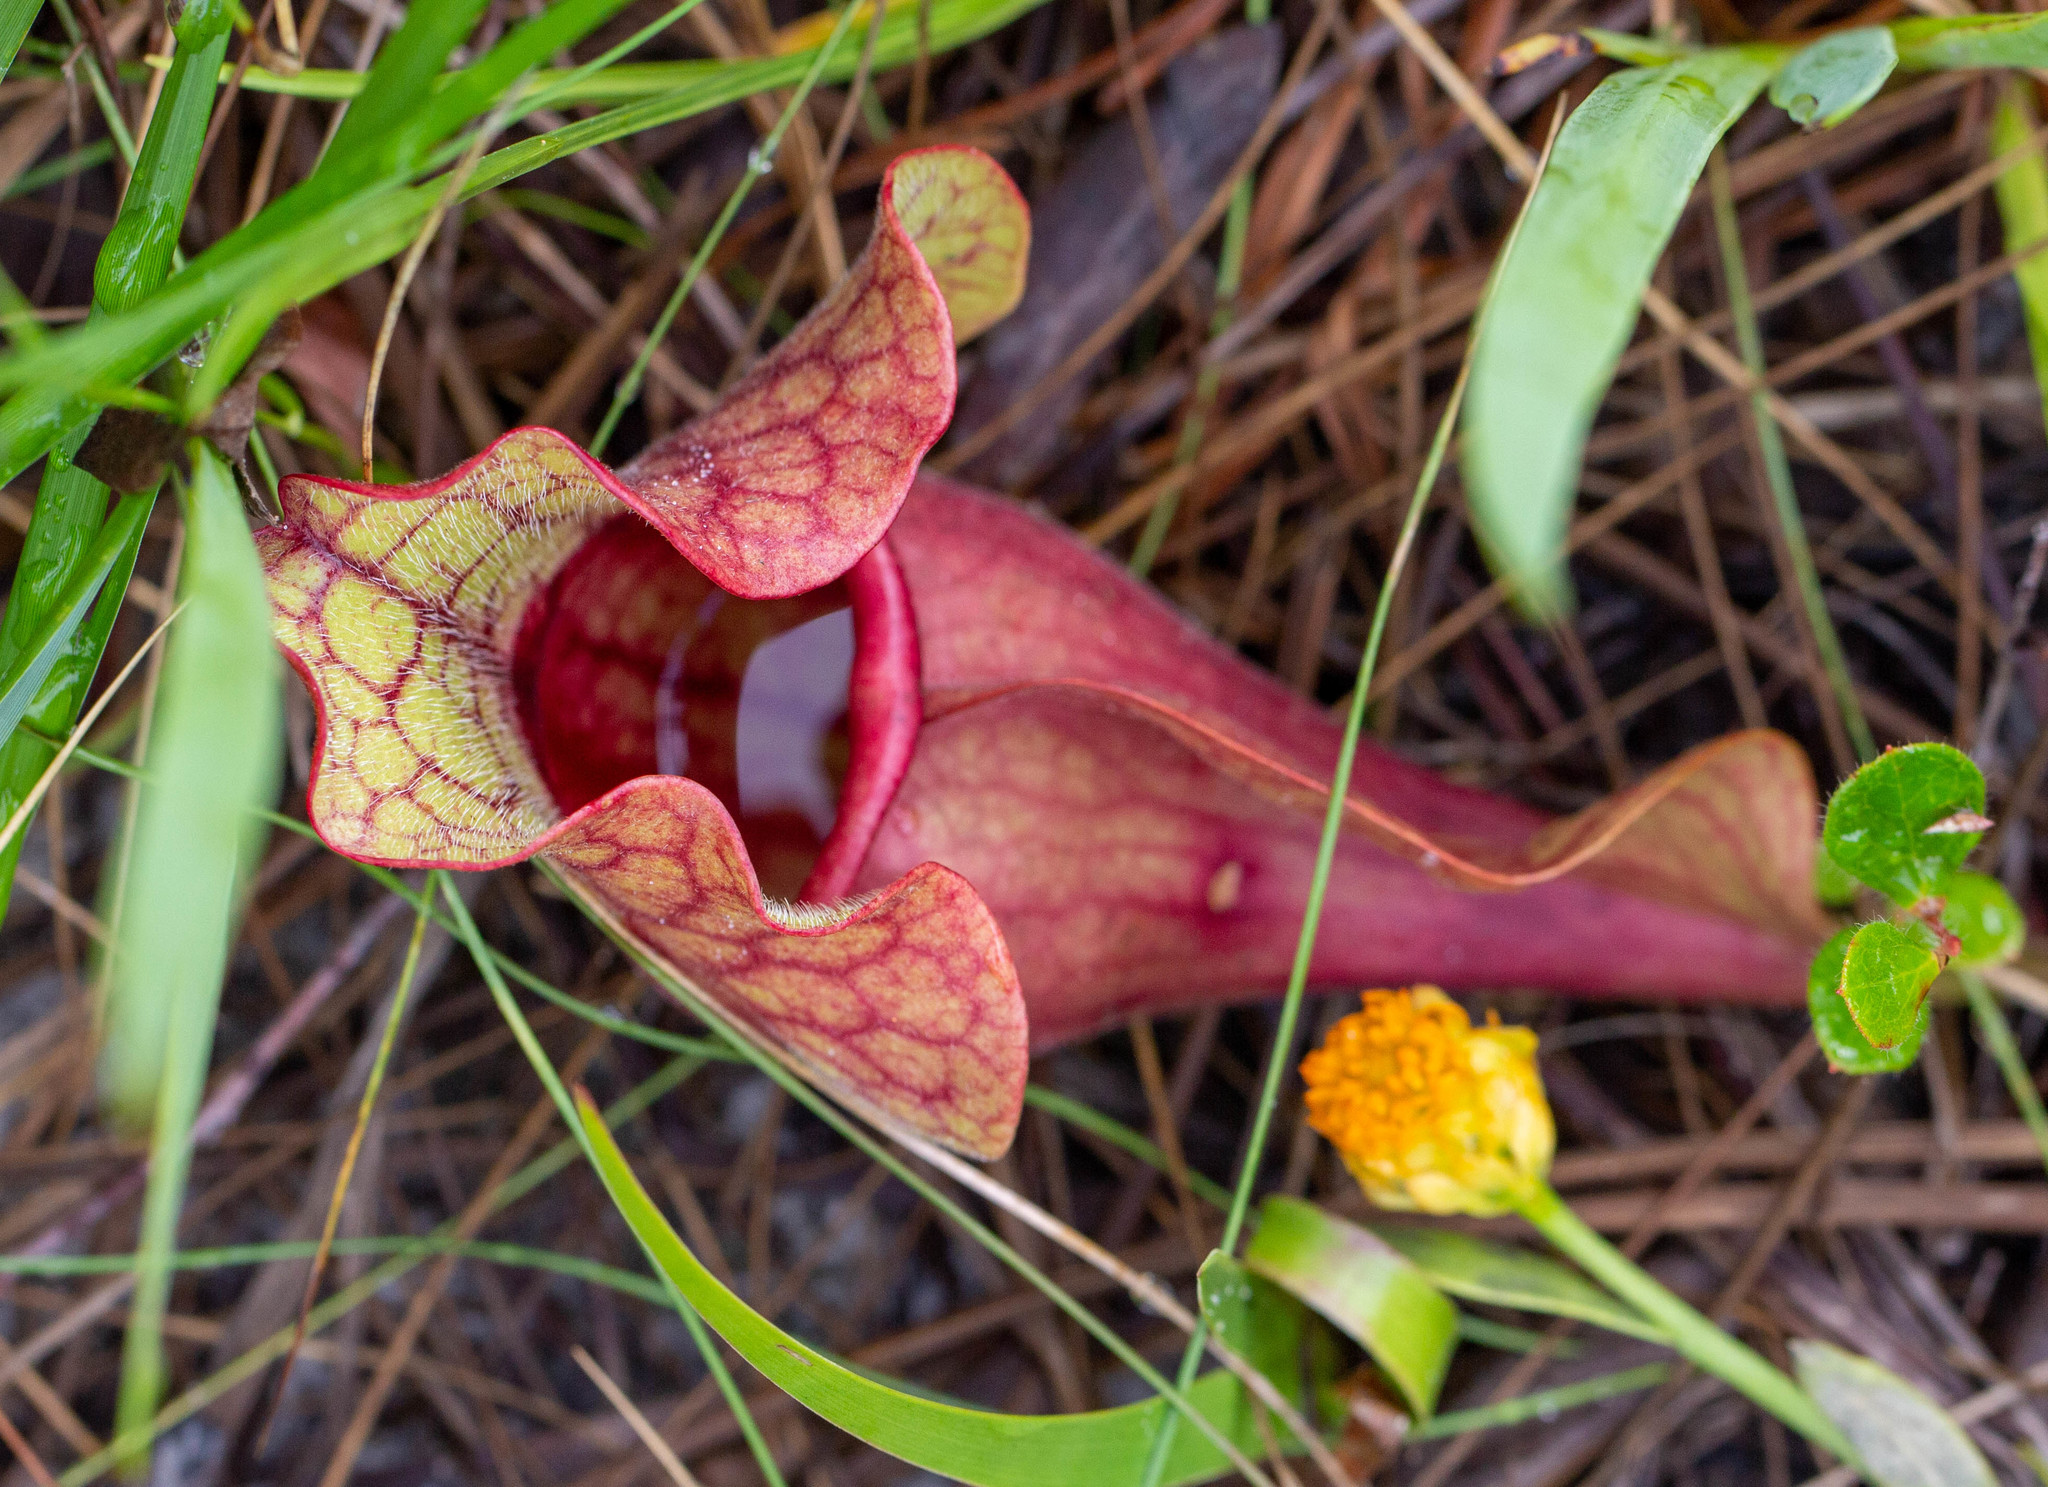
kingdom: Plantae
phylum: Tracheophyta
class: Magnoliopsida
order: Ericales
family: Sarraceniaceae
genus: Sarracenia
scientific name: Sarracenia rosea
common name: Pink pitcherplant
